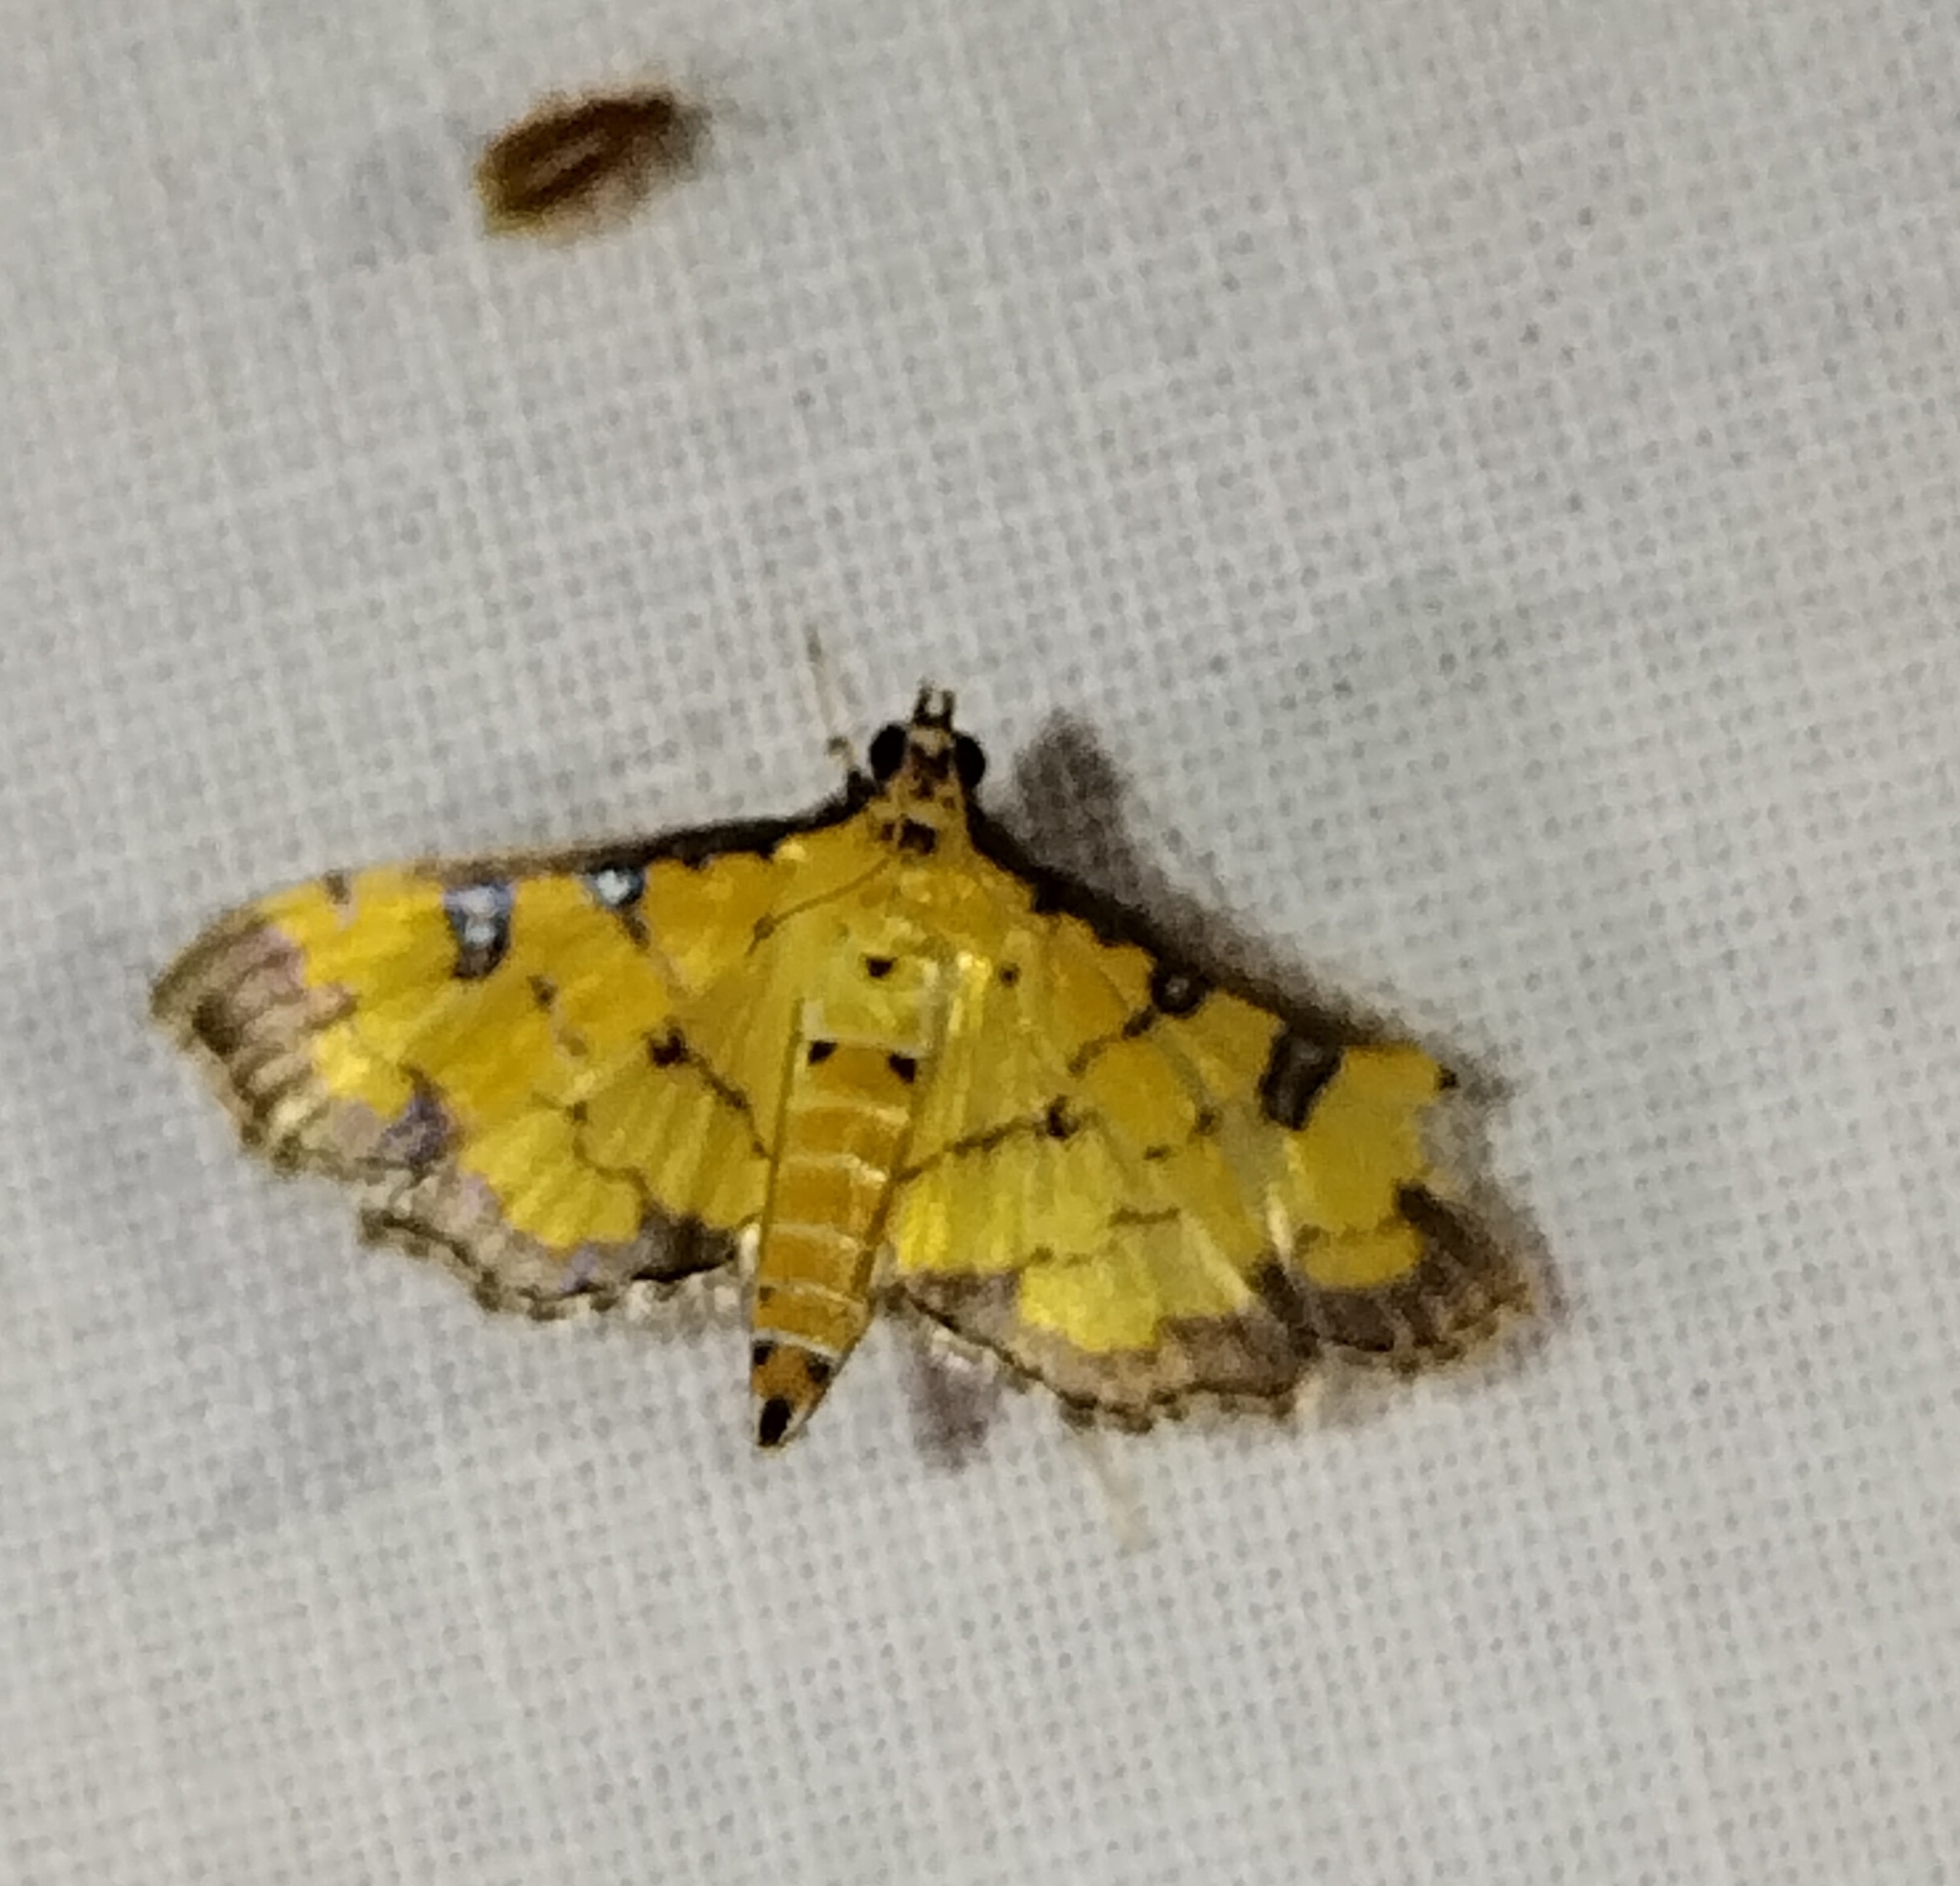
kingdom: Animalia
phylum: Arthropoda
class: Insecta
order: Lepidoptera
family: Crambidae
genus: Ategumia
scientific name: Ategumia ebulealis
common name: Moth
